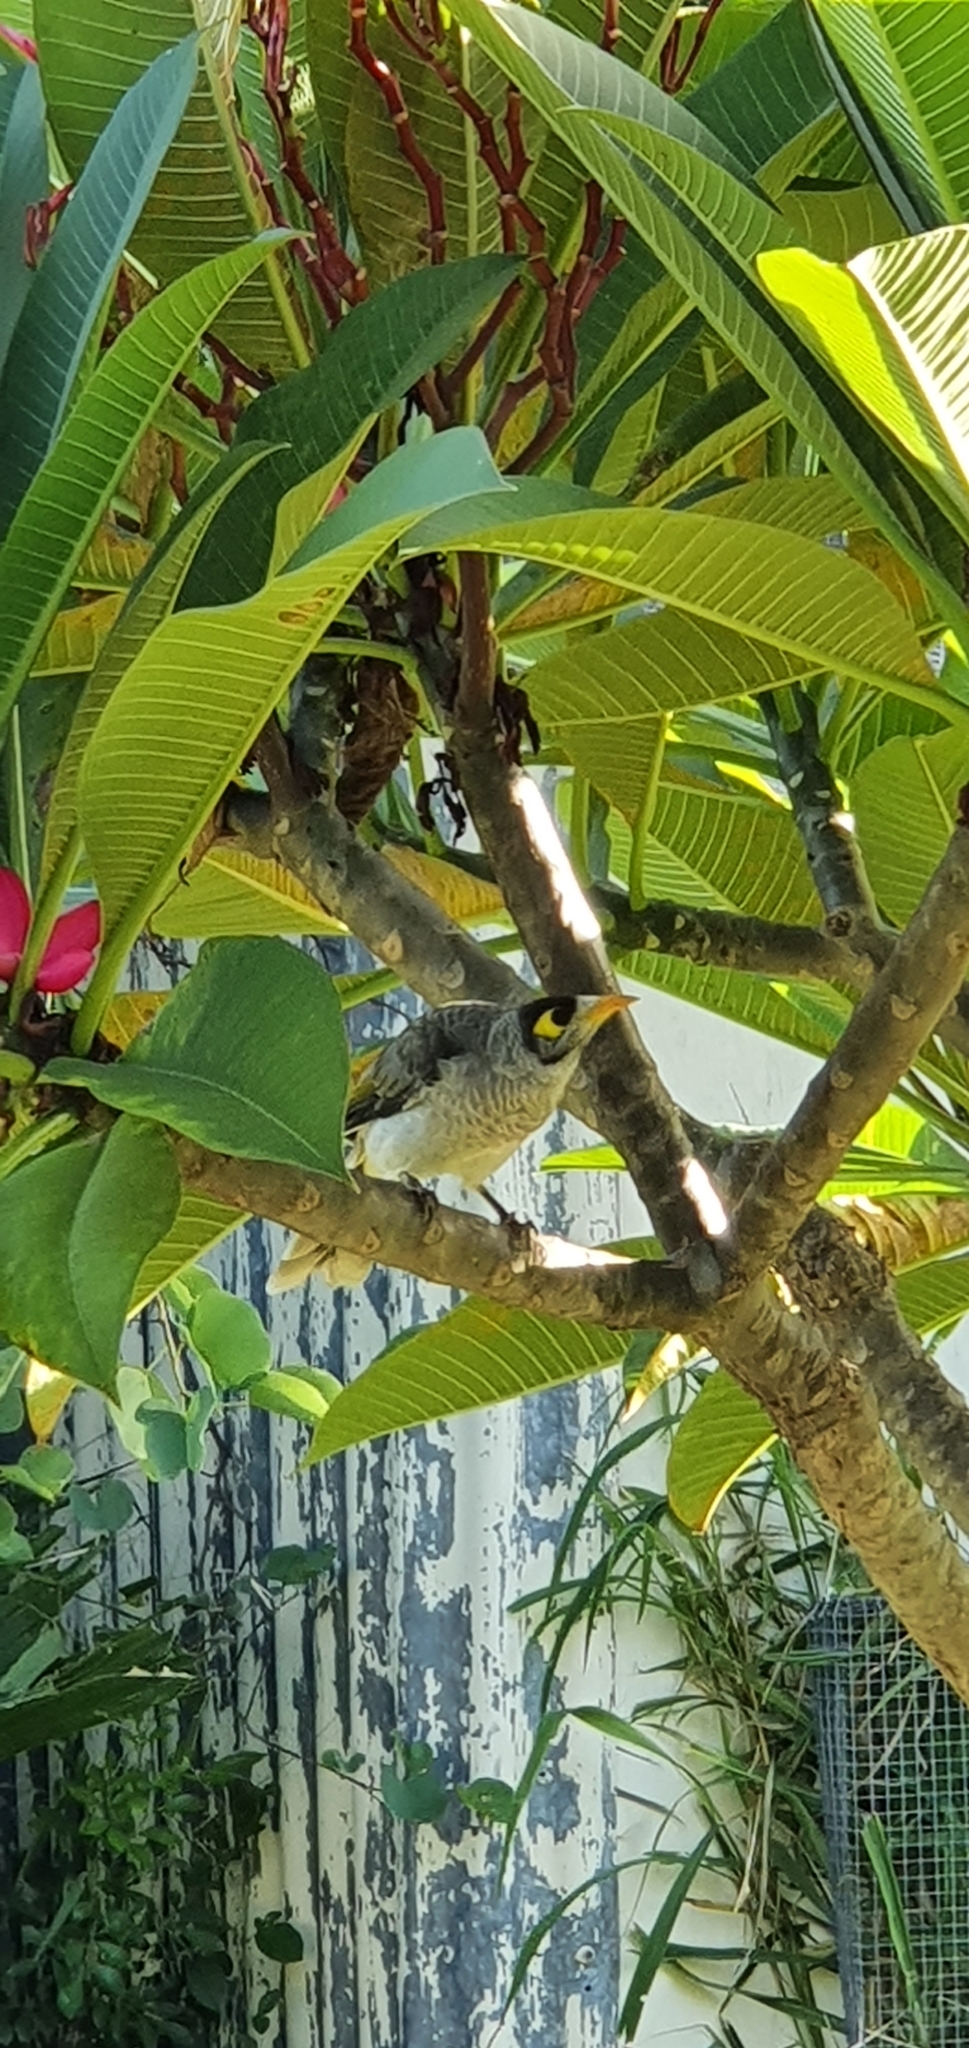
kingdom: Animalia
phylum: Chordata
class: Aves
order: Passeriformes
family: Meliphagidae
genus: Manorina
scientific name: Manorina melanocephala
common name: Noisy miner
